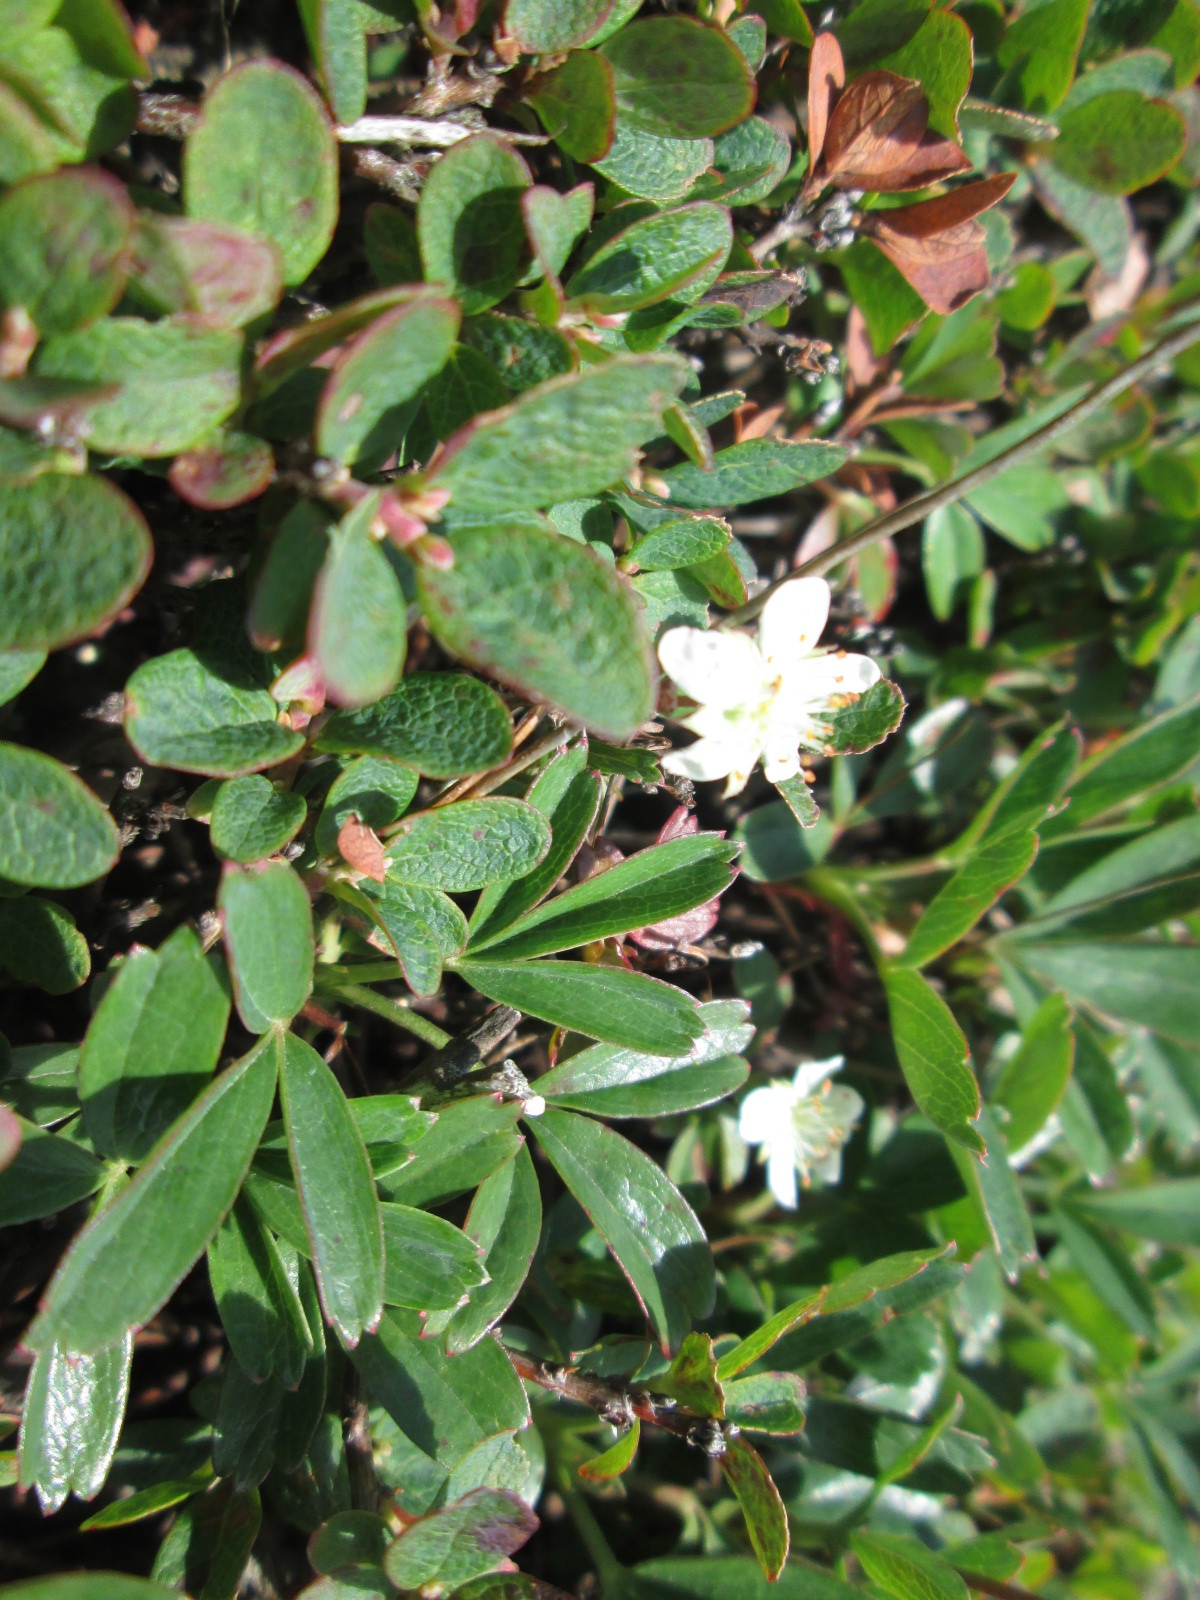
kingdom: Plantae
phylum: Tracheophyta
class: Magnoliopsida
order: Rosales
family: Rosaceae
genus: Sibbaldia
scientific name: Sibbaldia tridentata
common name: Three-toothed cinquefoil
